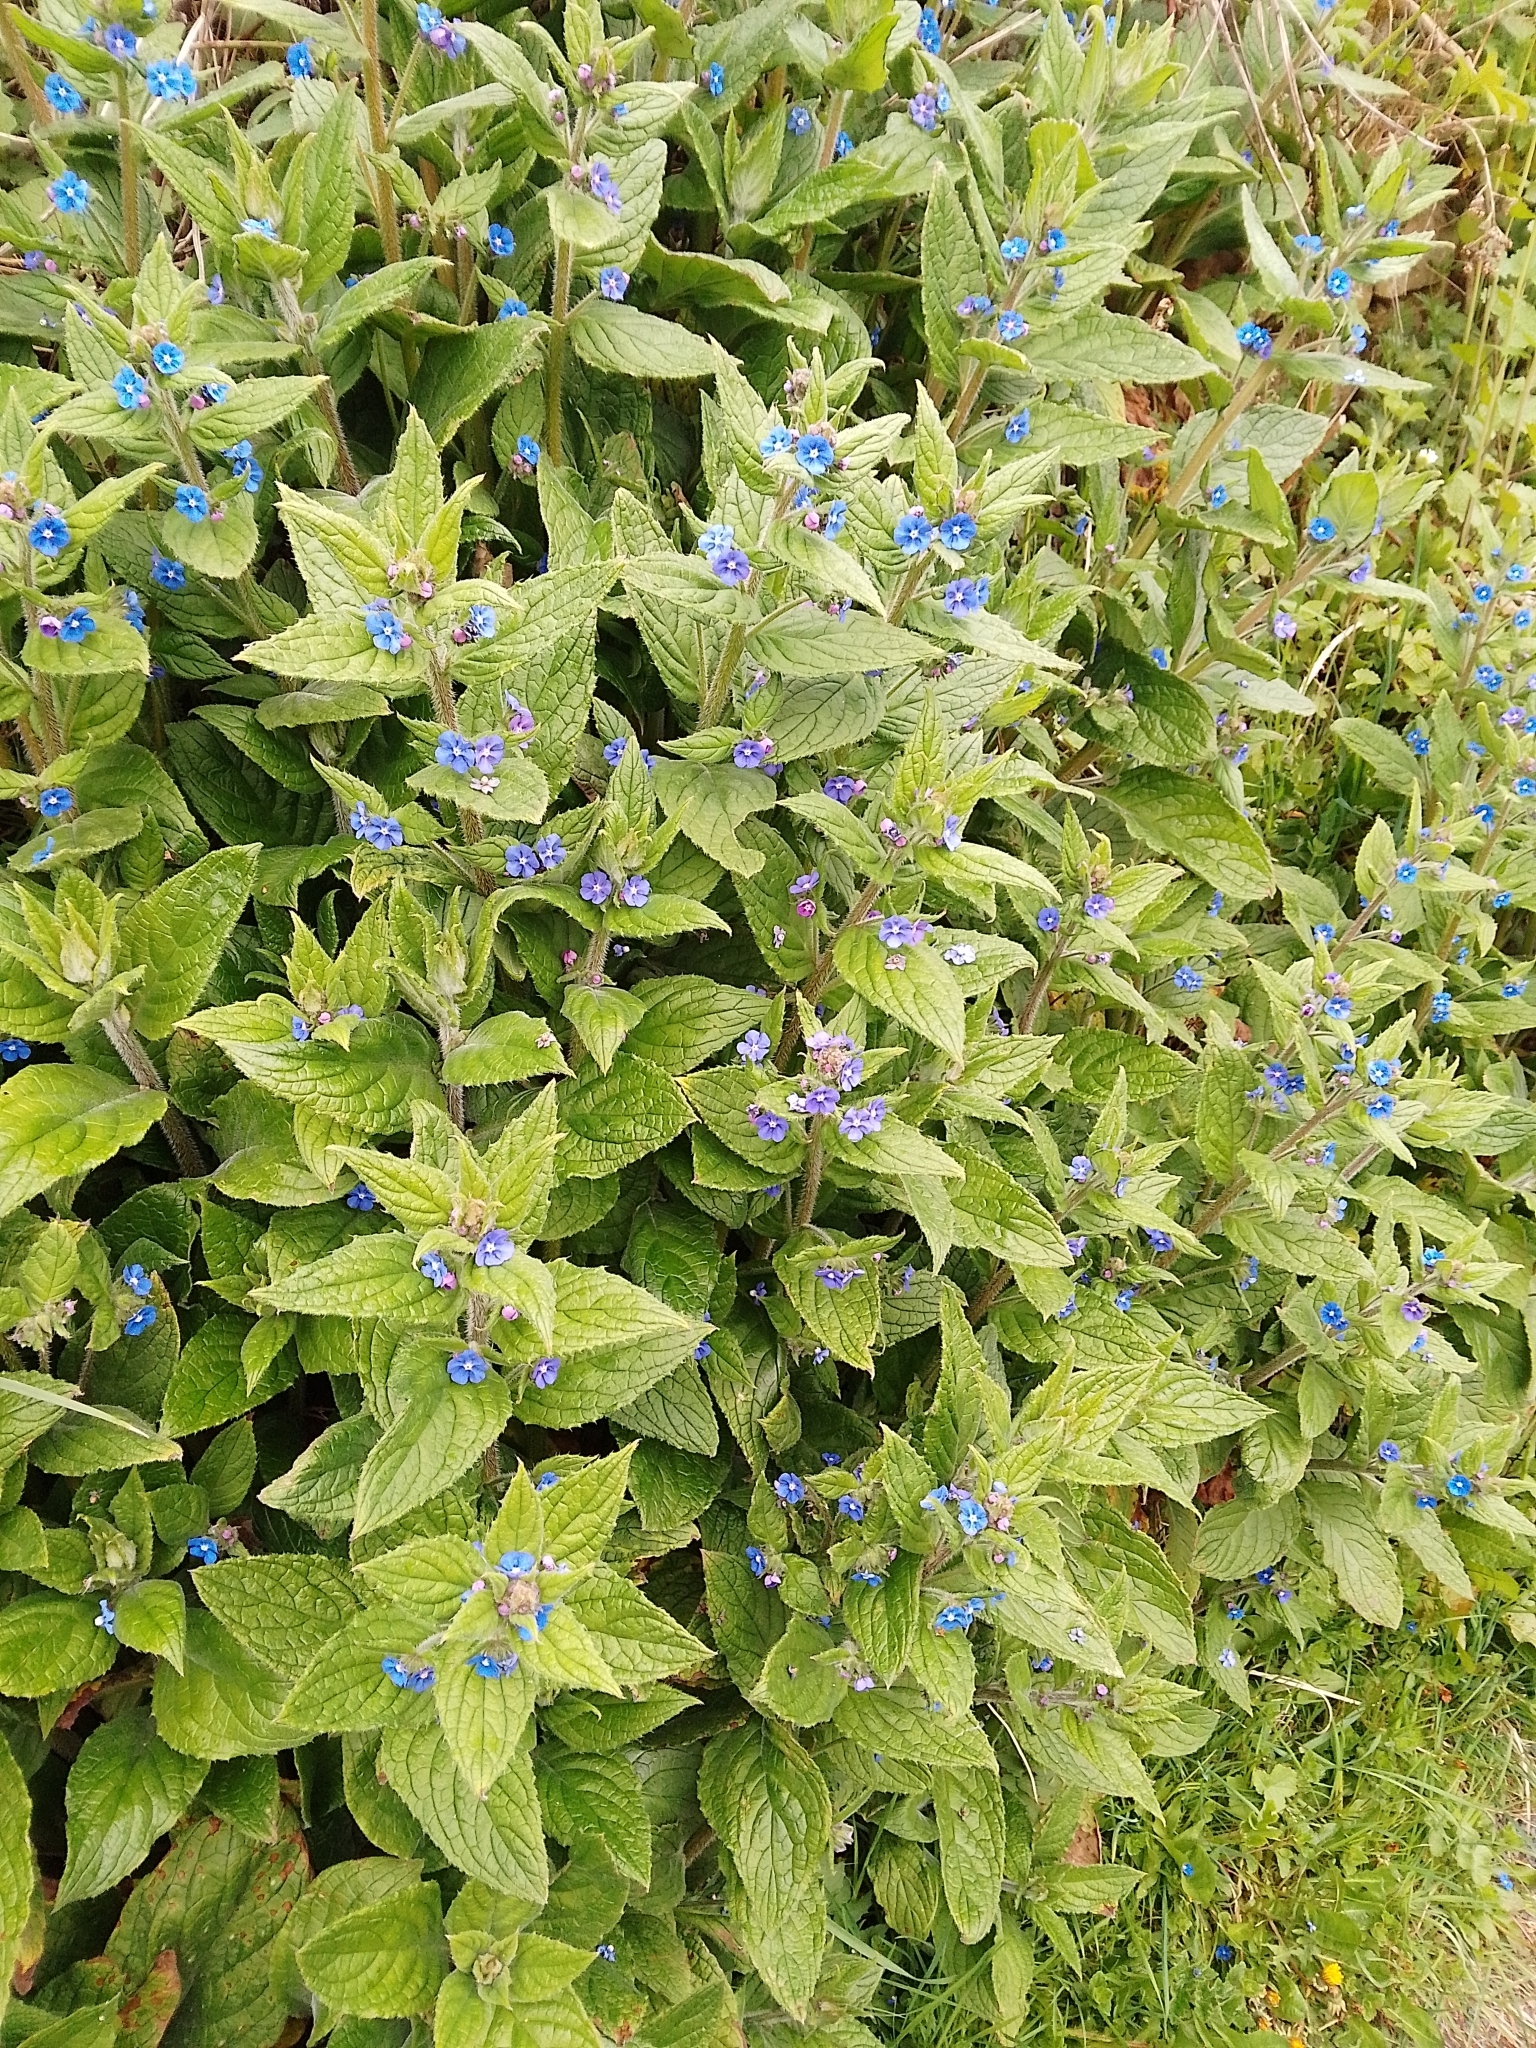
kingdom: Plantae
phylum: Tracheophyta
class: Magnoliopsida
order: Boraginales
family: Boraginaceae
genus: Pentaglottis
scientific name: Pentaglottis sempervirens
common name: Green alkanet
